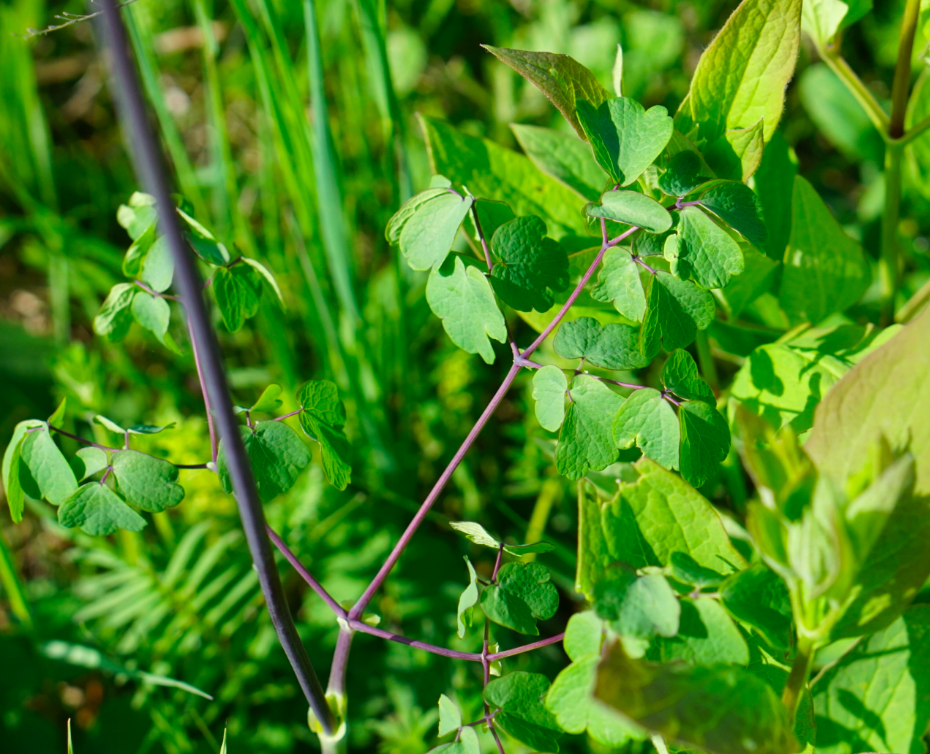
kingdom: Plantae
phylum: Tracheophyta
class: Magnoliopsida
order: Ranunculales
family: Ranunculaceae
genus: Thalictrum
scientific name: Thalictrum aquilegiifolium
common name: French meadow-rue
